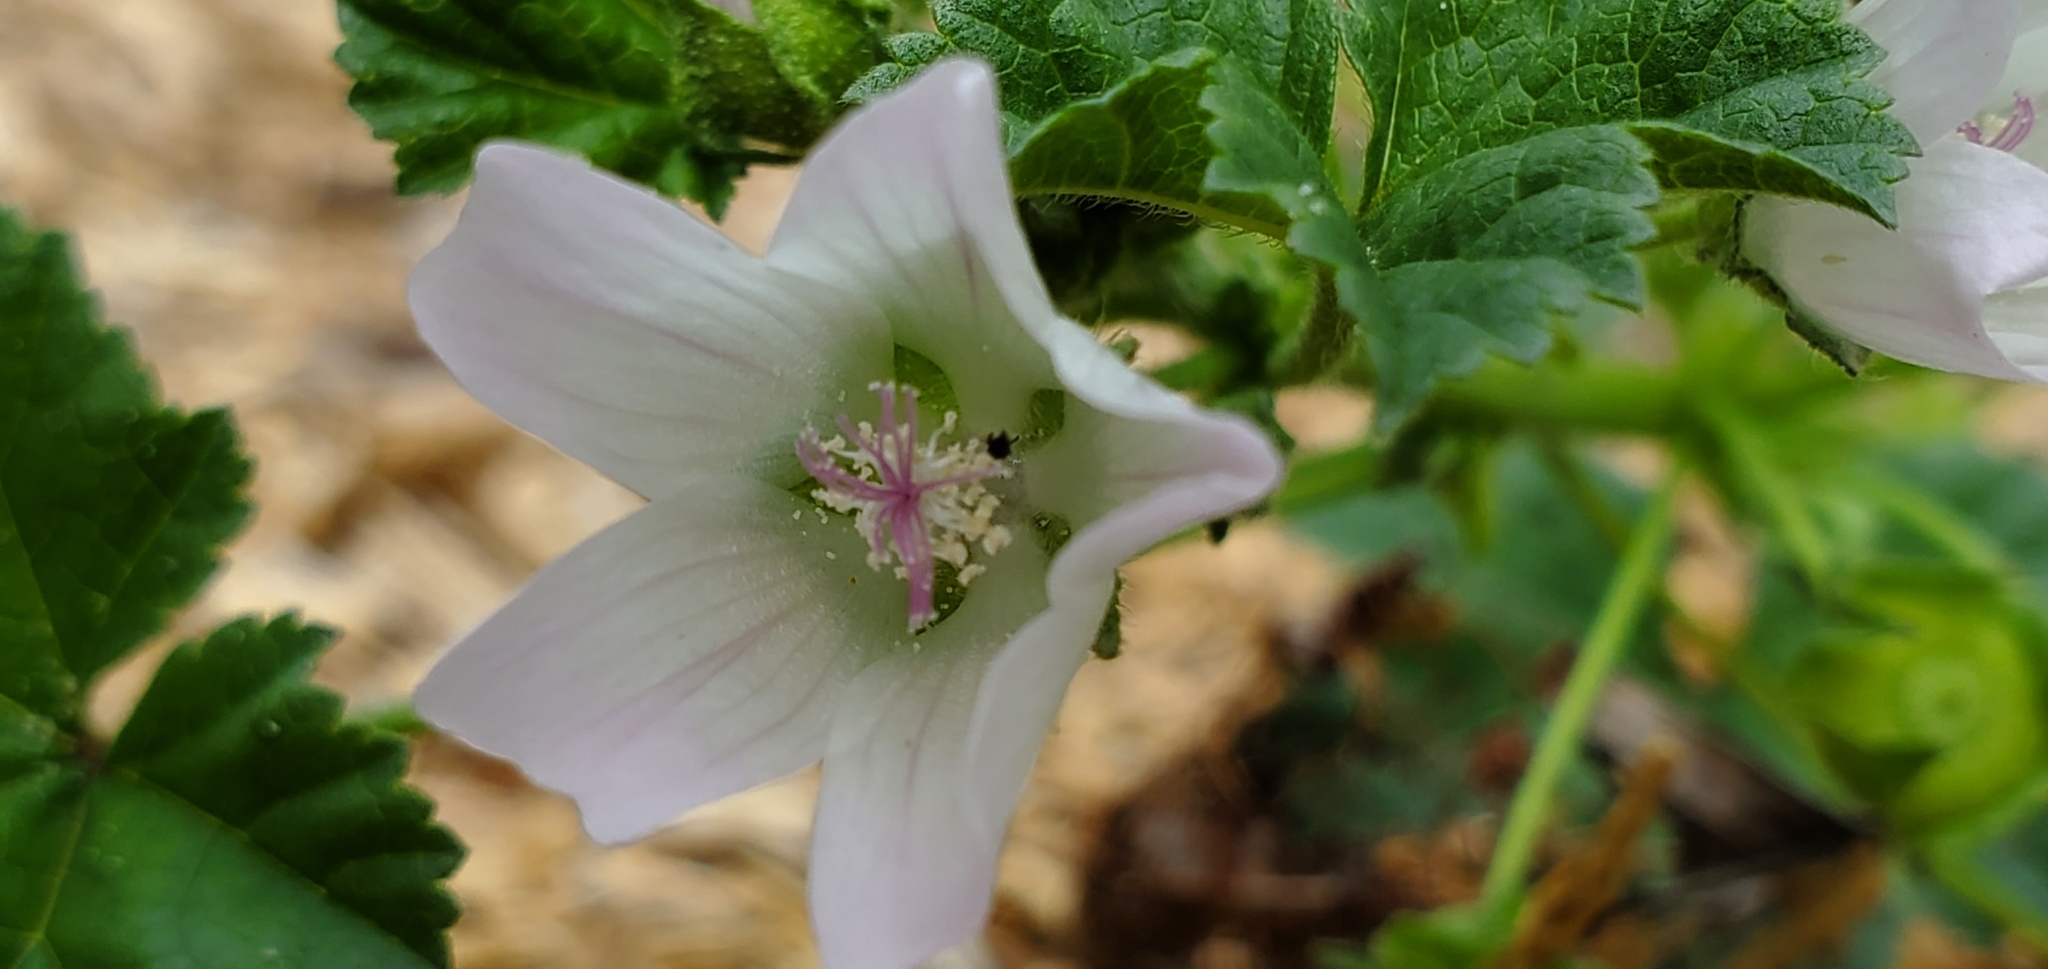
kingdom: Plantae
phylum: Tracheophyta
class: Magnoliopsida
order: Malvales
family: Malvaceae
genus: Malva
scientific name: Malva neglecta
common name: Common mallow
